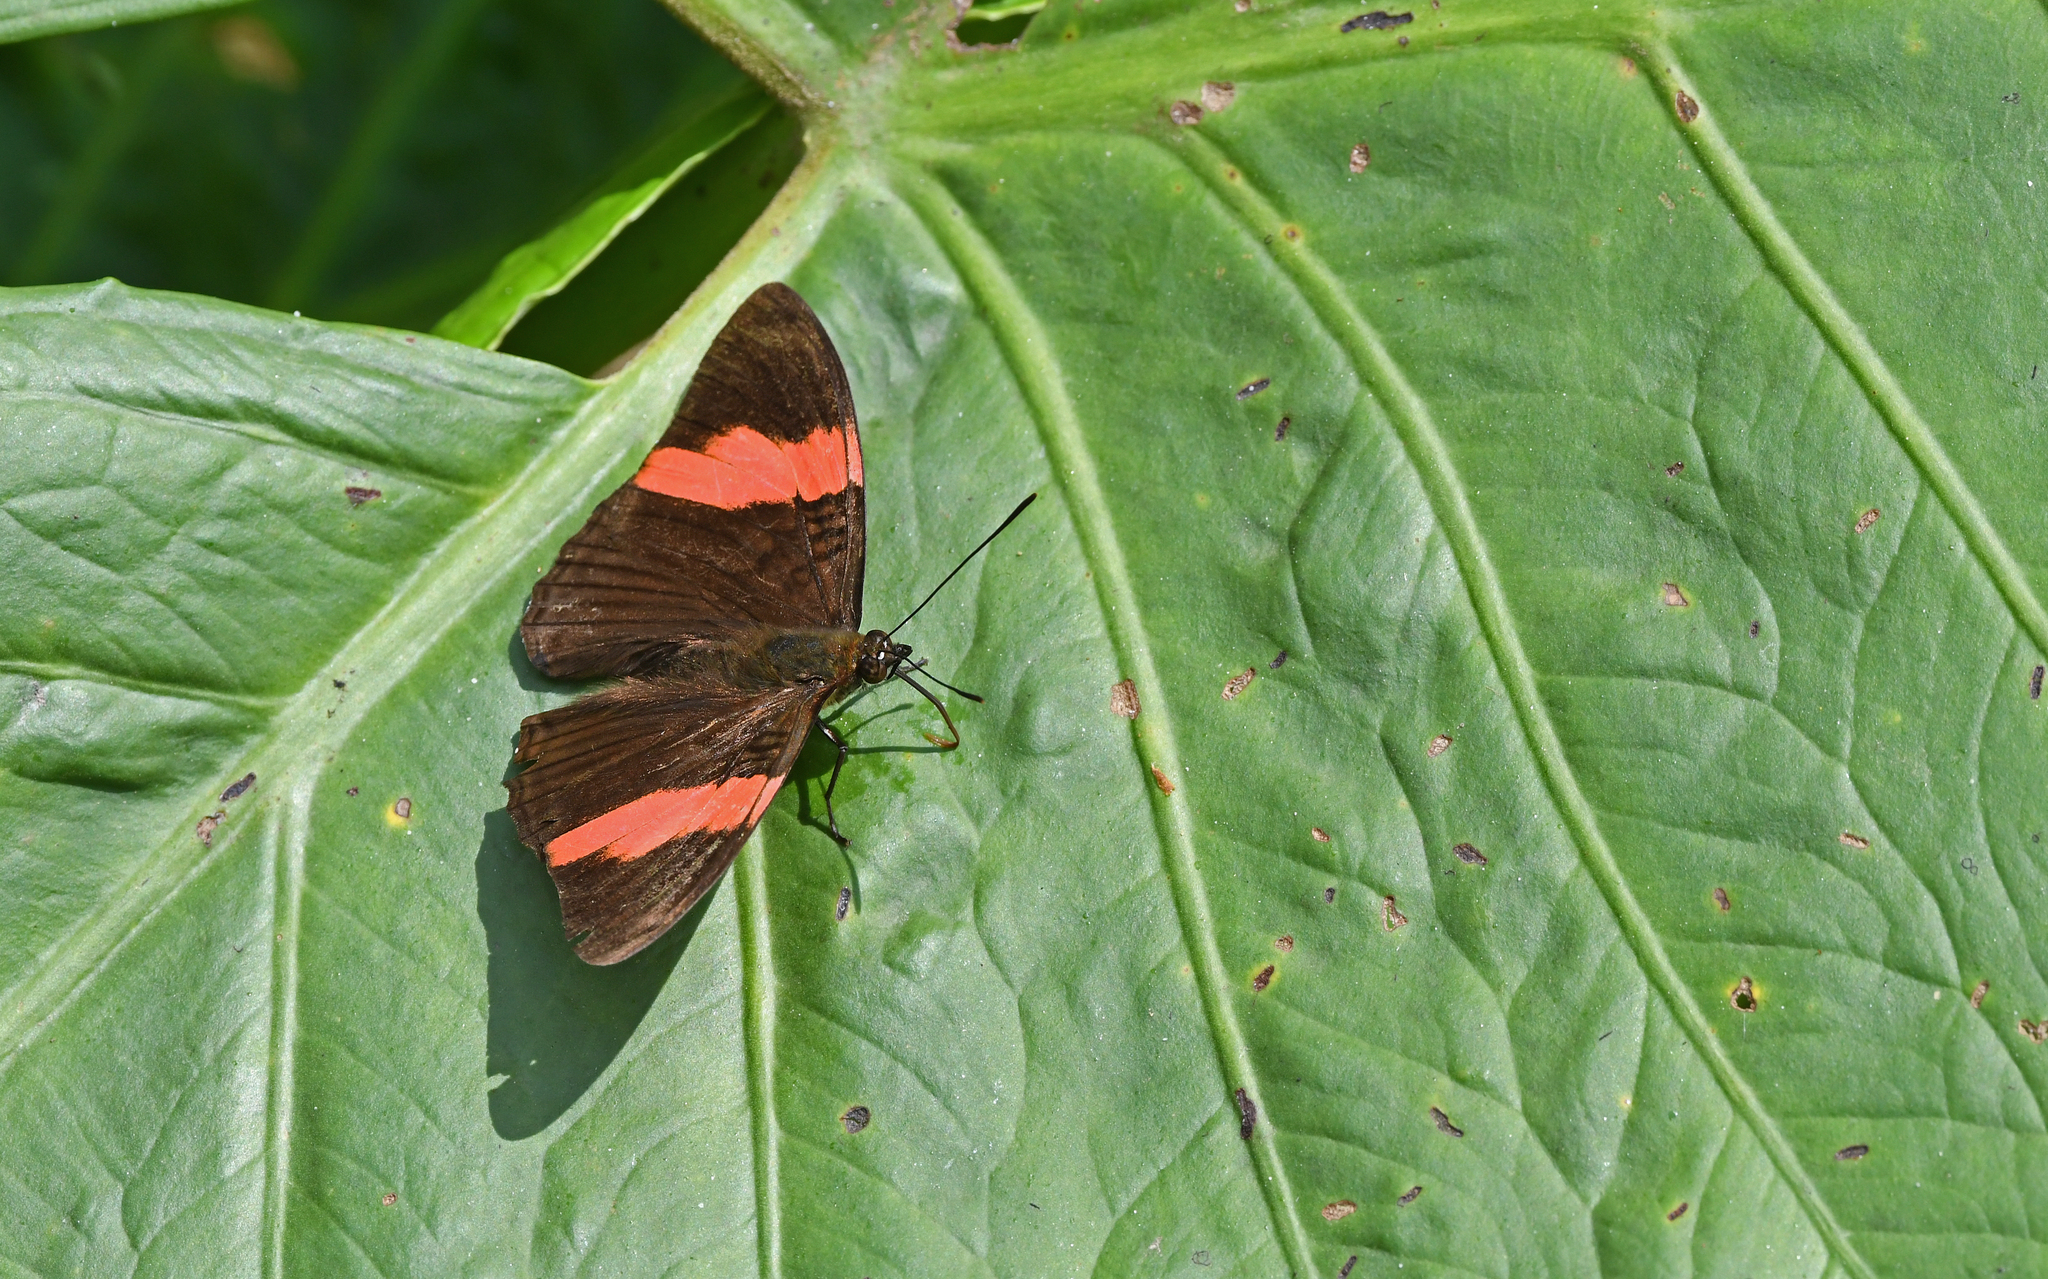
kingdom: Animalia
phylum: Arthropoda
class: Insecta
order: Lepidoptera
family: Nymphalidae
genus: Limenitis
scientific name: Limenitis isis
